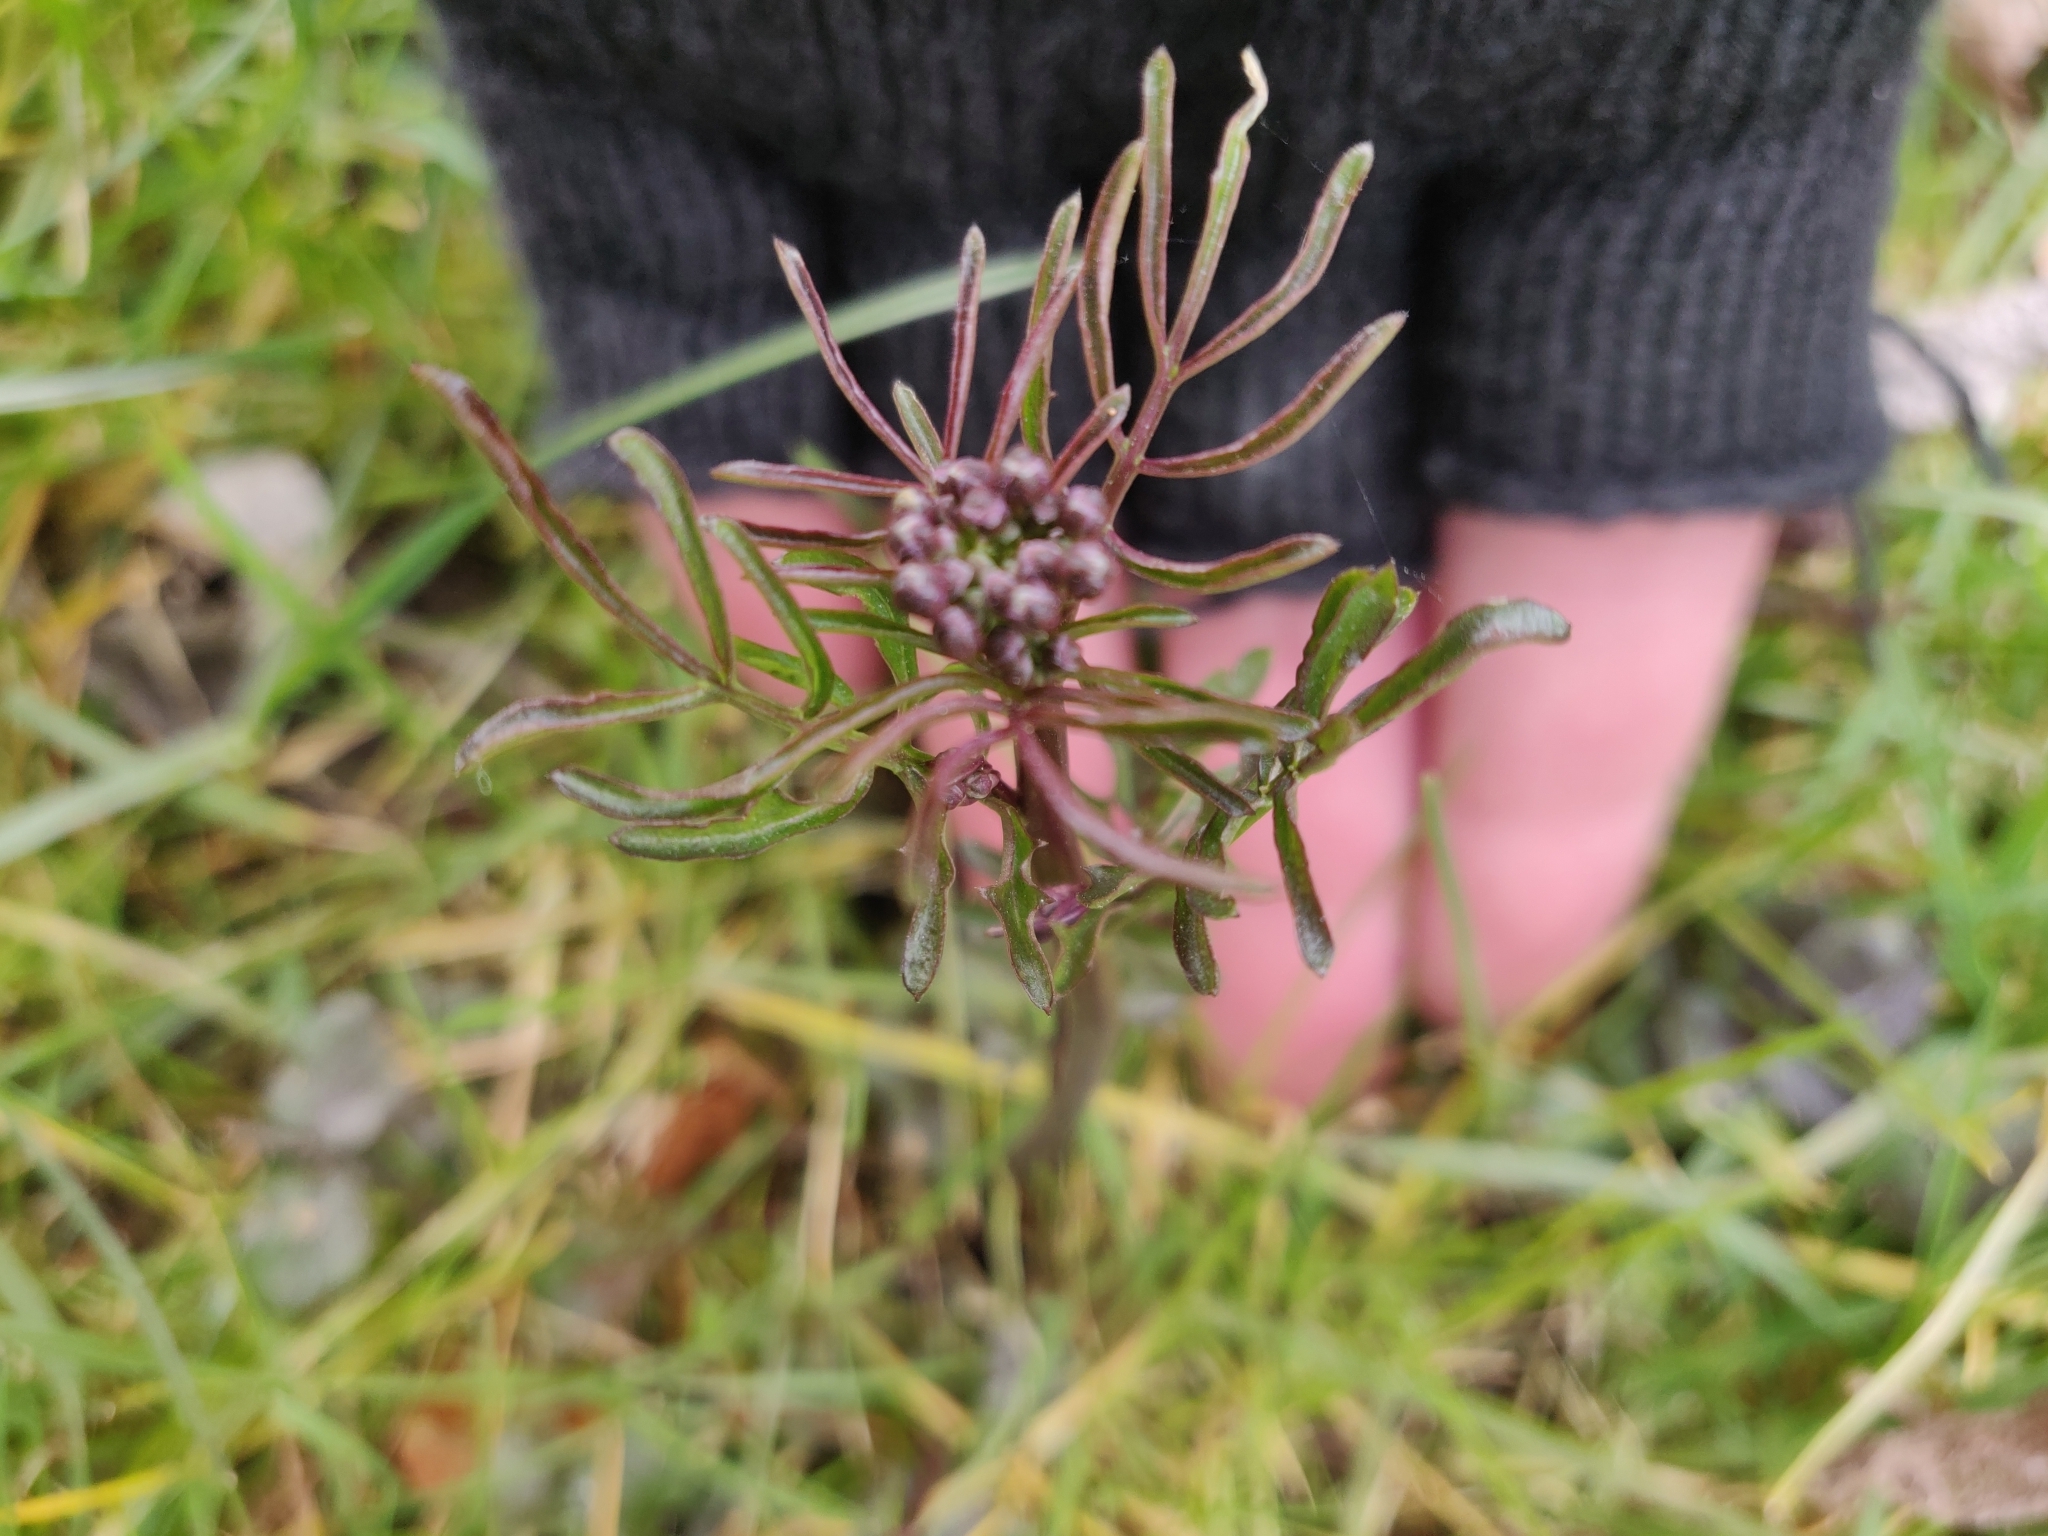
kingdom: Plantae
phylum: Tracheophyta
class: Magnoliopsida
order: Brassicales
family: Brassicaceae
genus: Cardamine
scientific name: Cardamine pratensis
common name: Cuckoo flower
